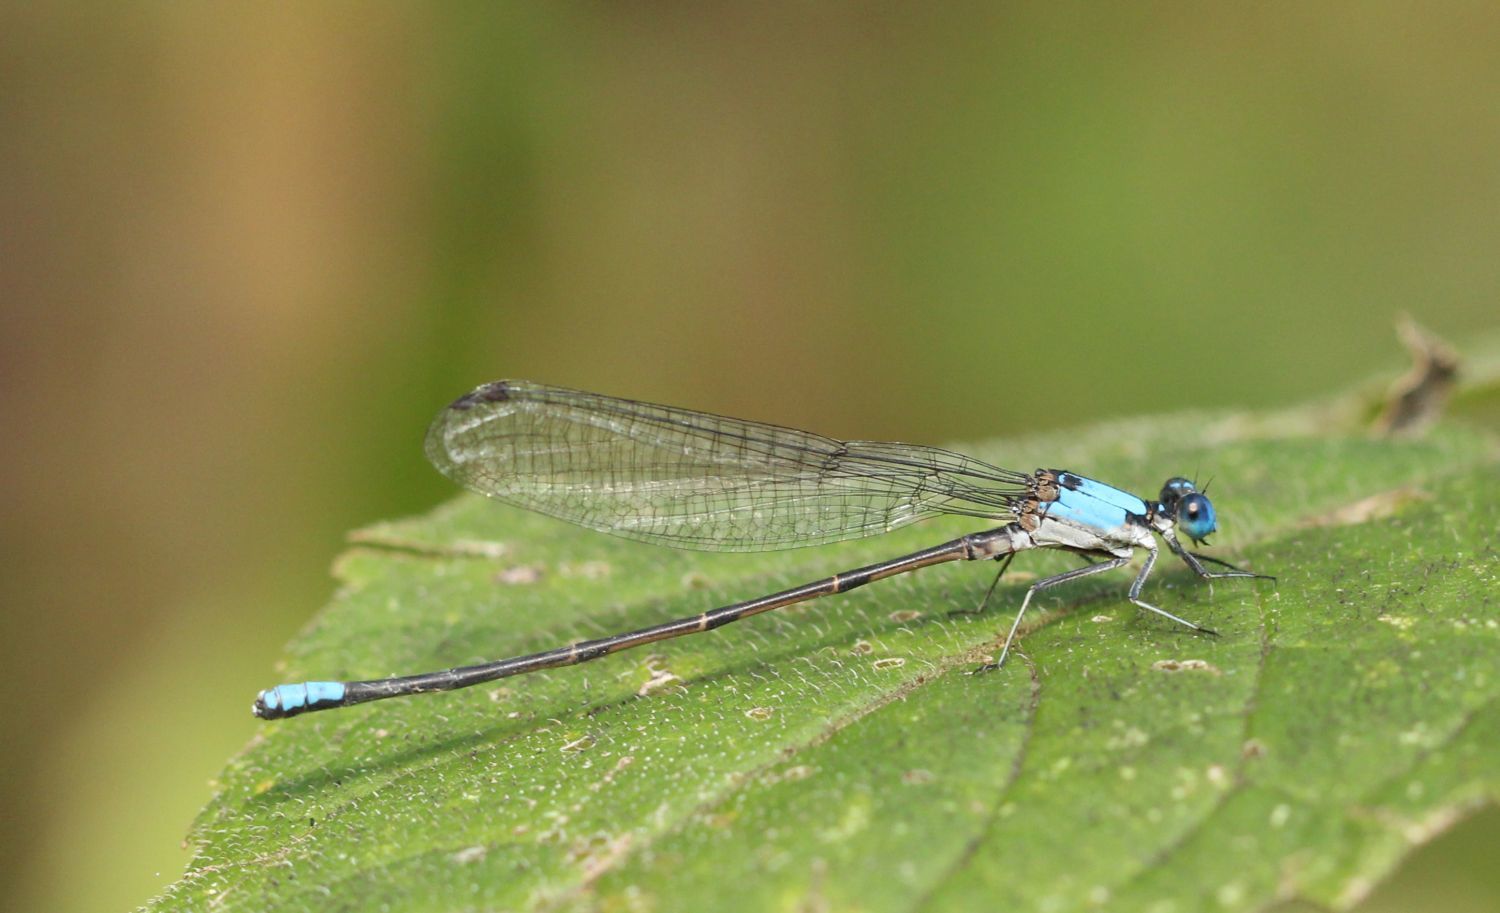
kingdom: Animalia
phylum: Arthropoda
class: Insecta
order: Odonata
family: Coenagrionidae
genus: Argia
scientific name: Argia apicalis
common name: Blue-fronted dancer
